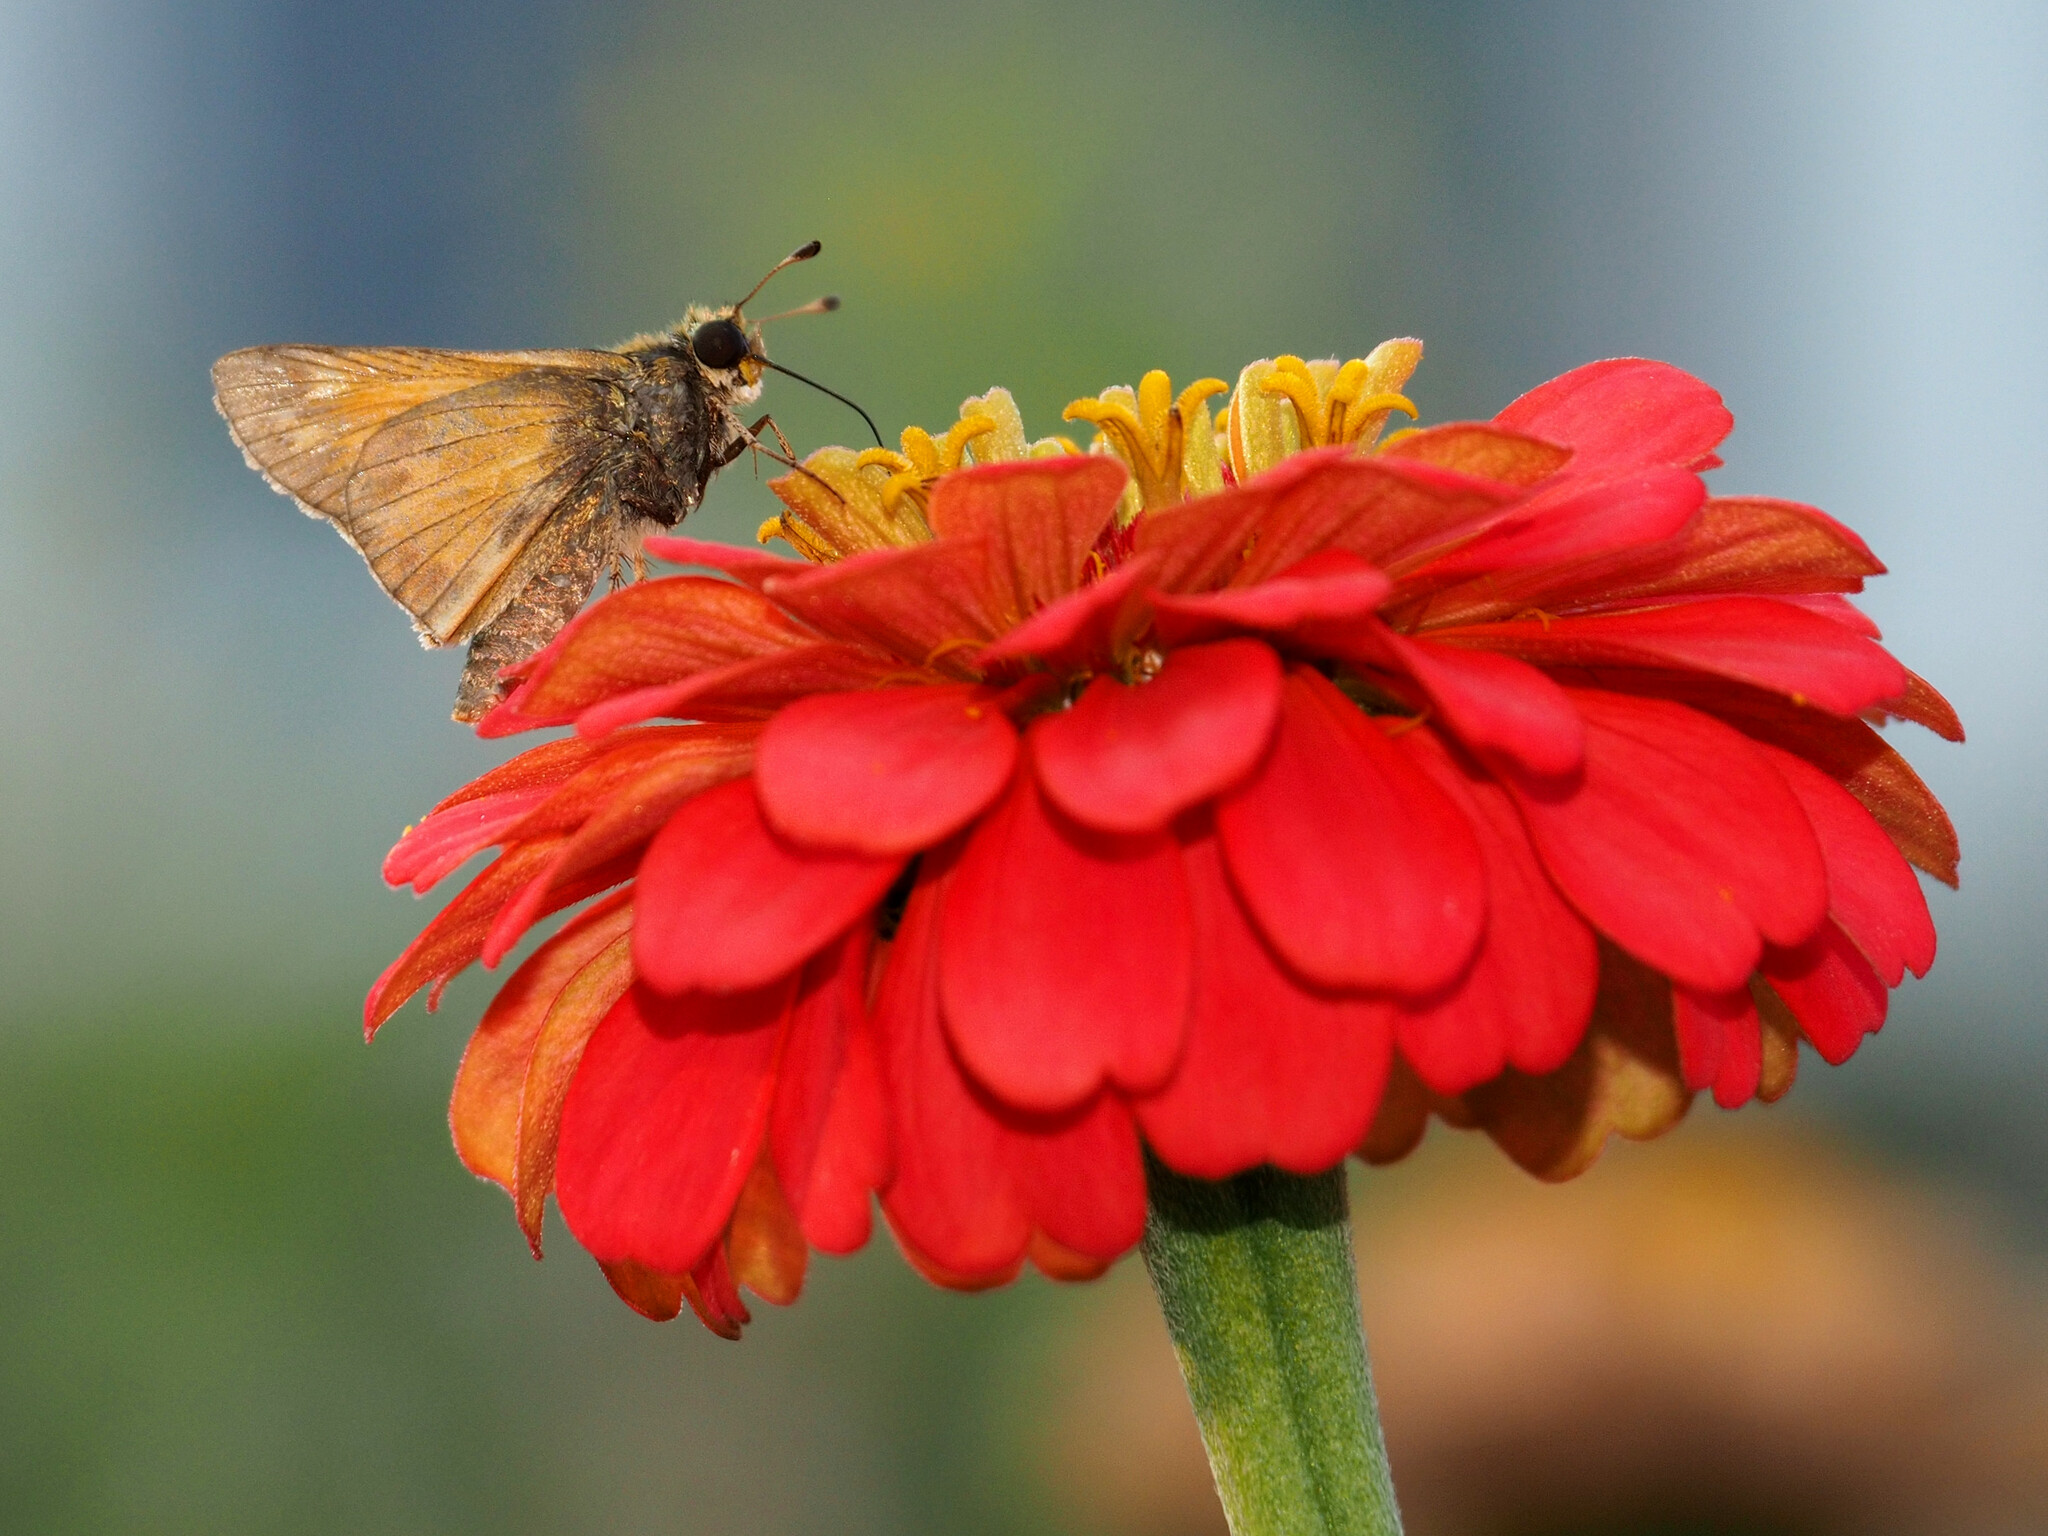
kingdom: Animalia
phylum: Arthropoda
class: Insecta
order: Lepidoptera
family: Hesperiidae
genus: Atalopedes
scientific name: Atalopedes
